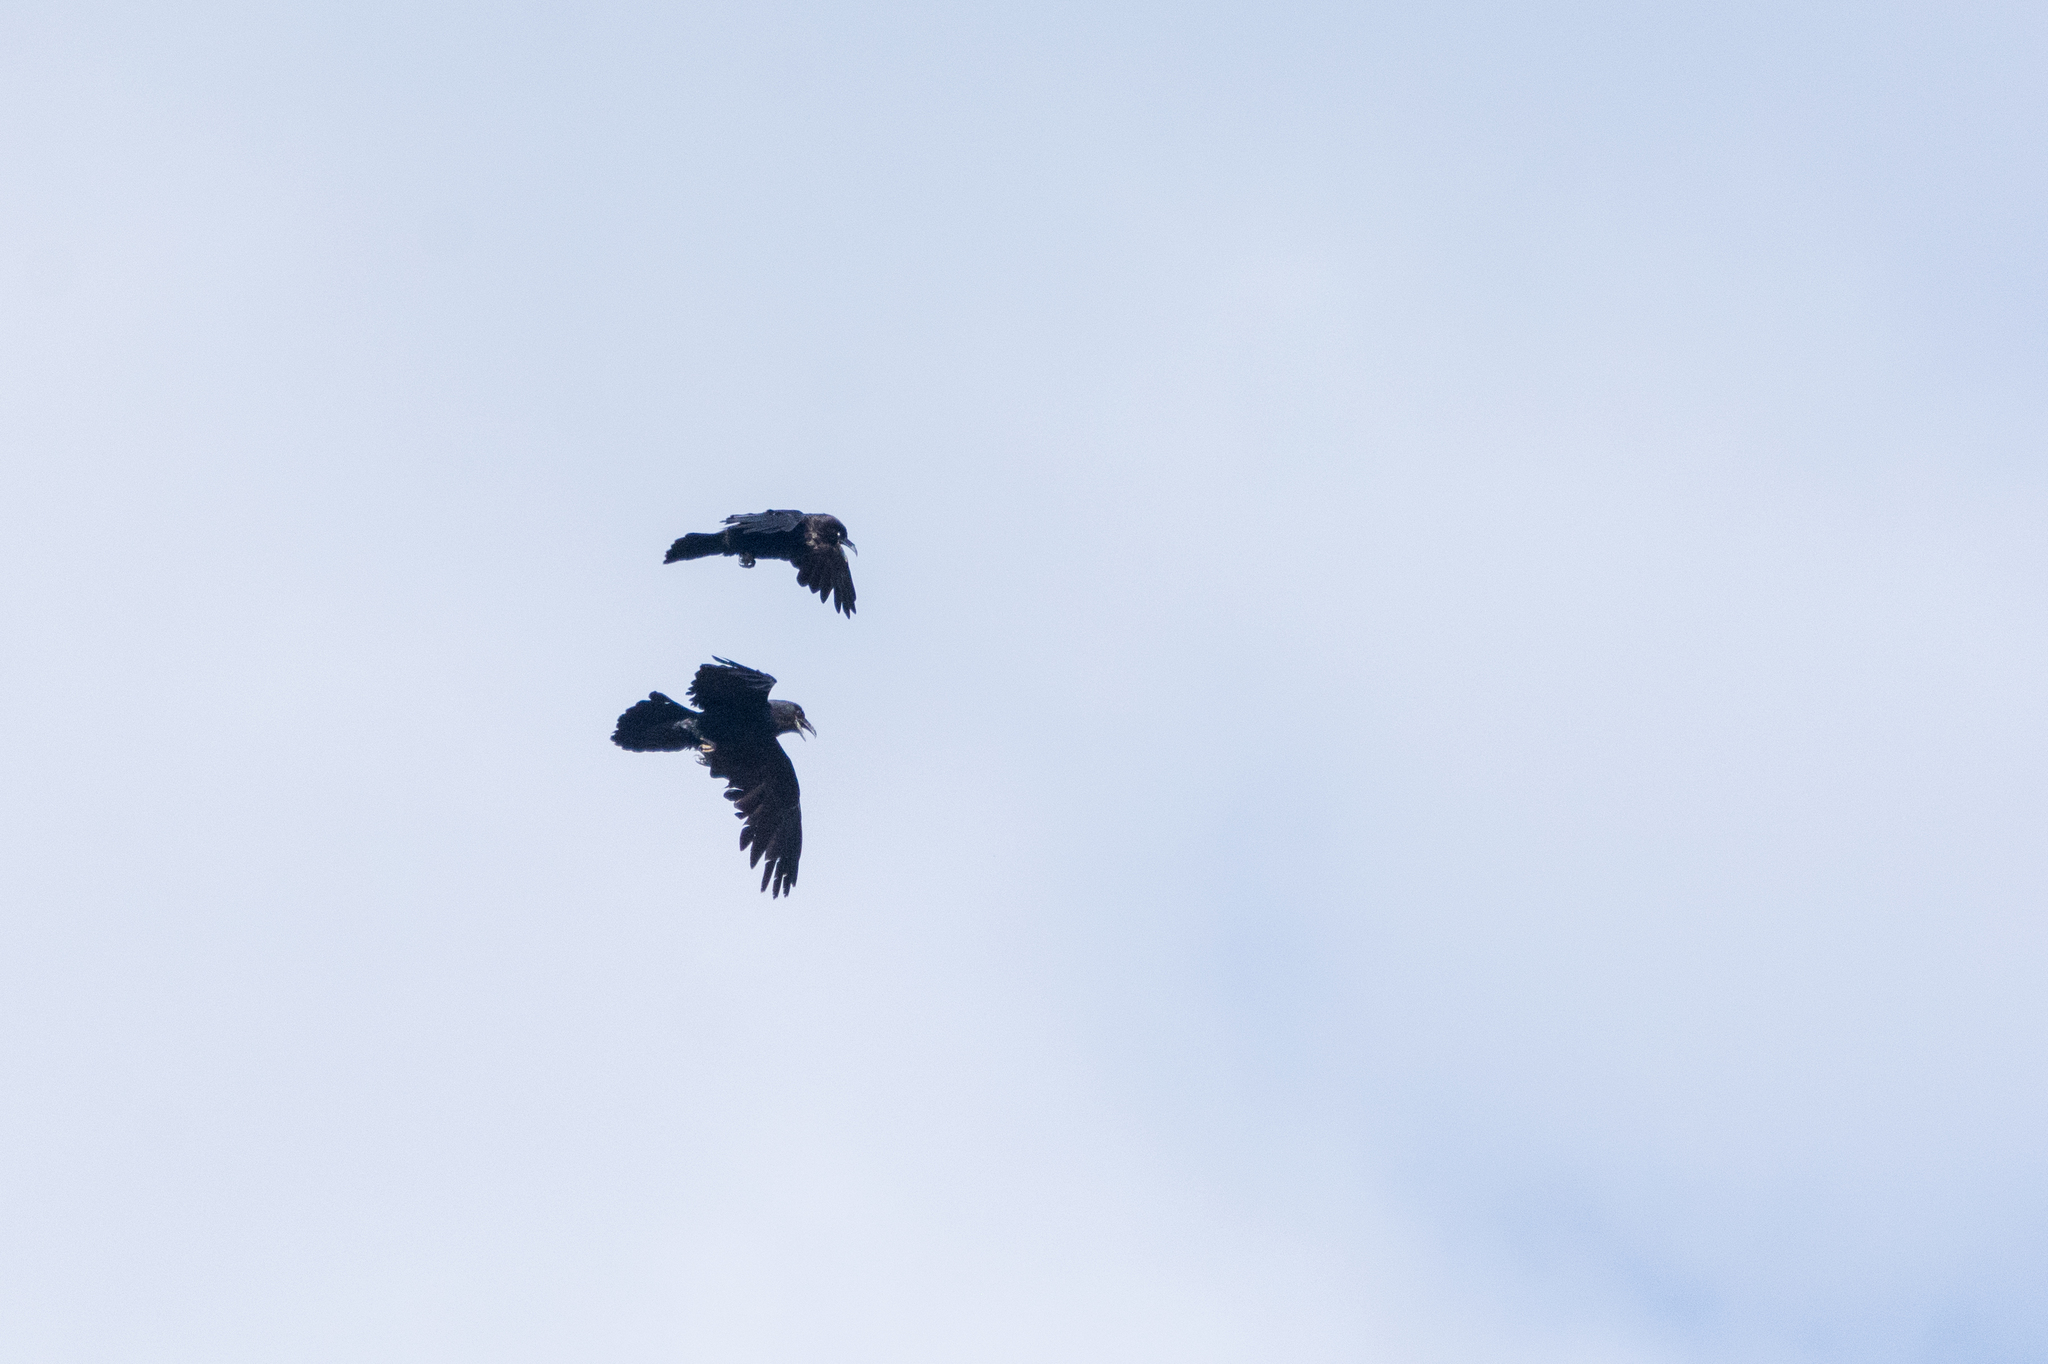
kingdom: Animalia
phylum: Chordata
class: Aves
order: Passeriformes
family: Corvidae
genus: Corvus
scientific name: Corvus corax
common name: Common raven
